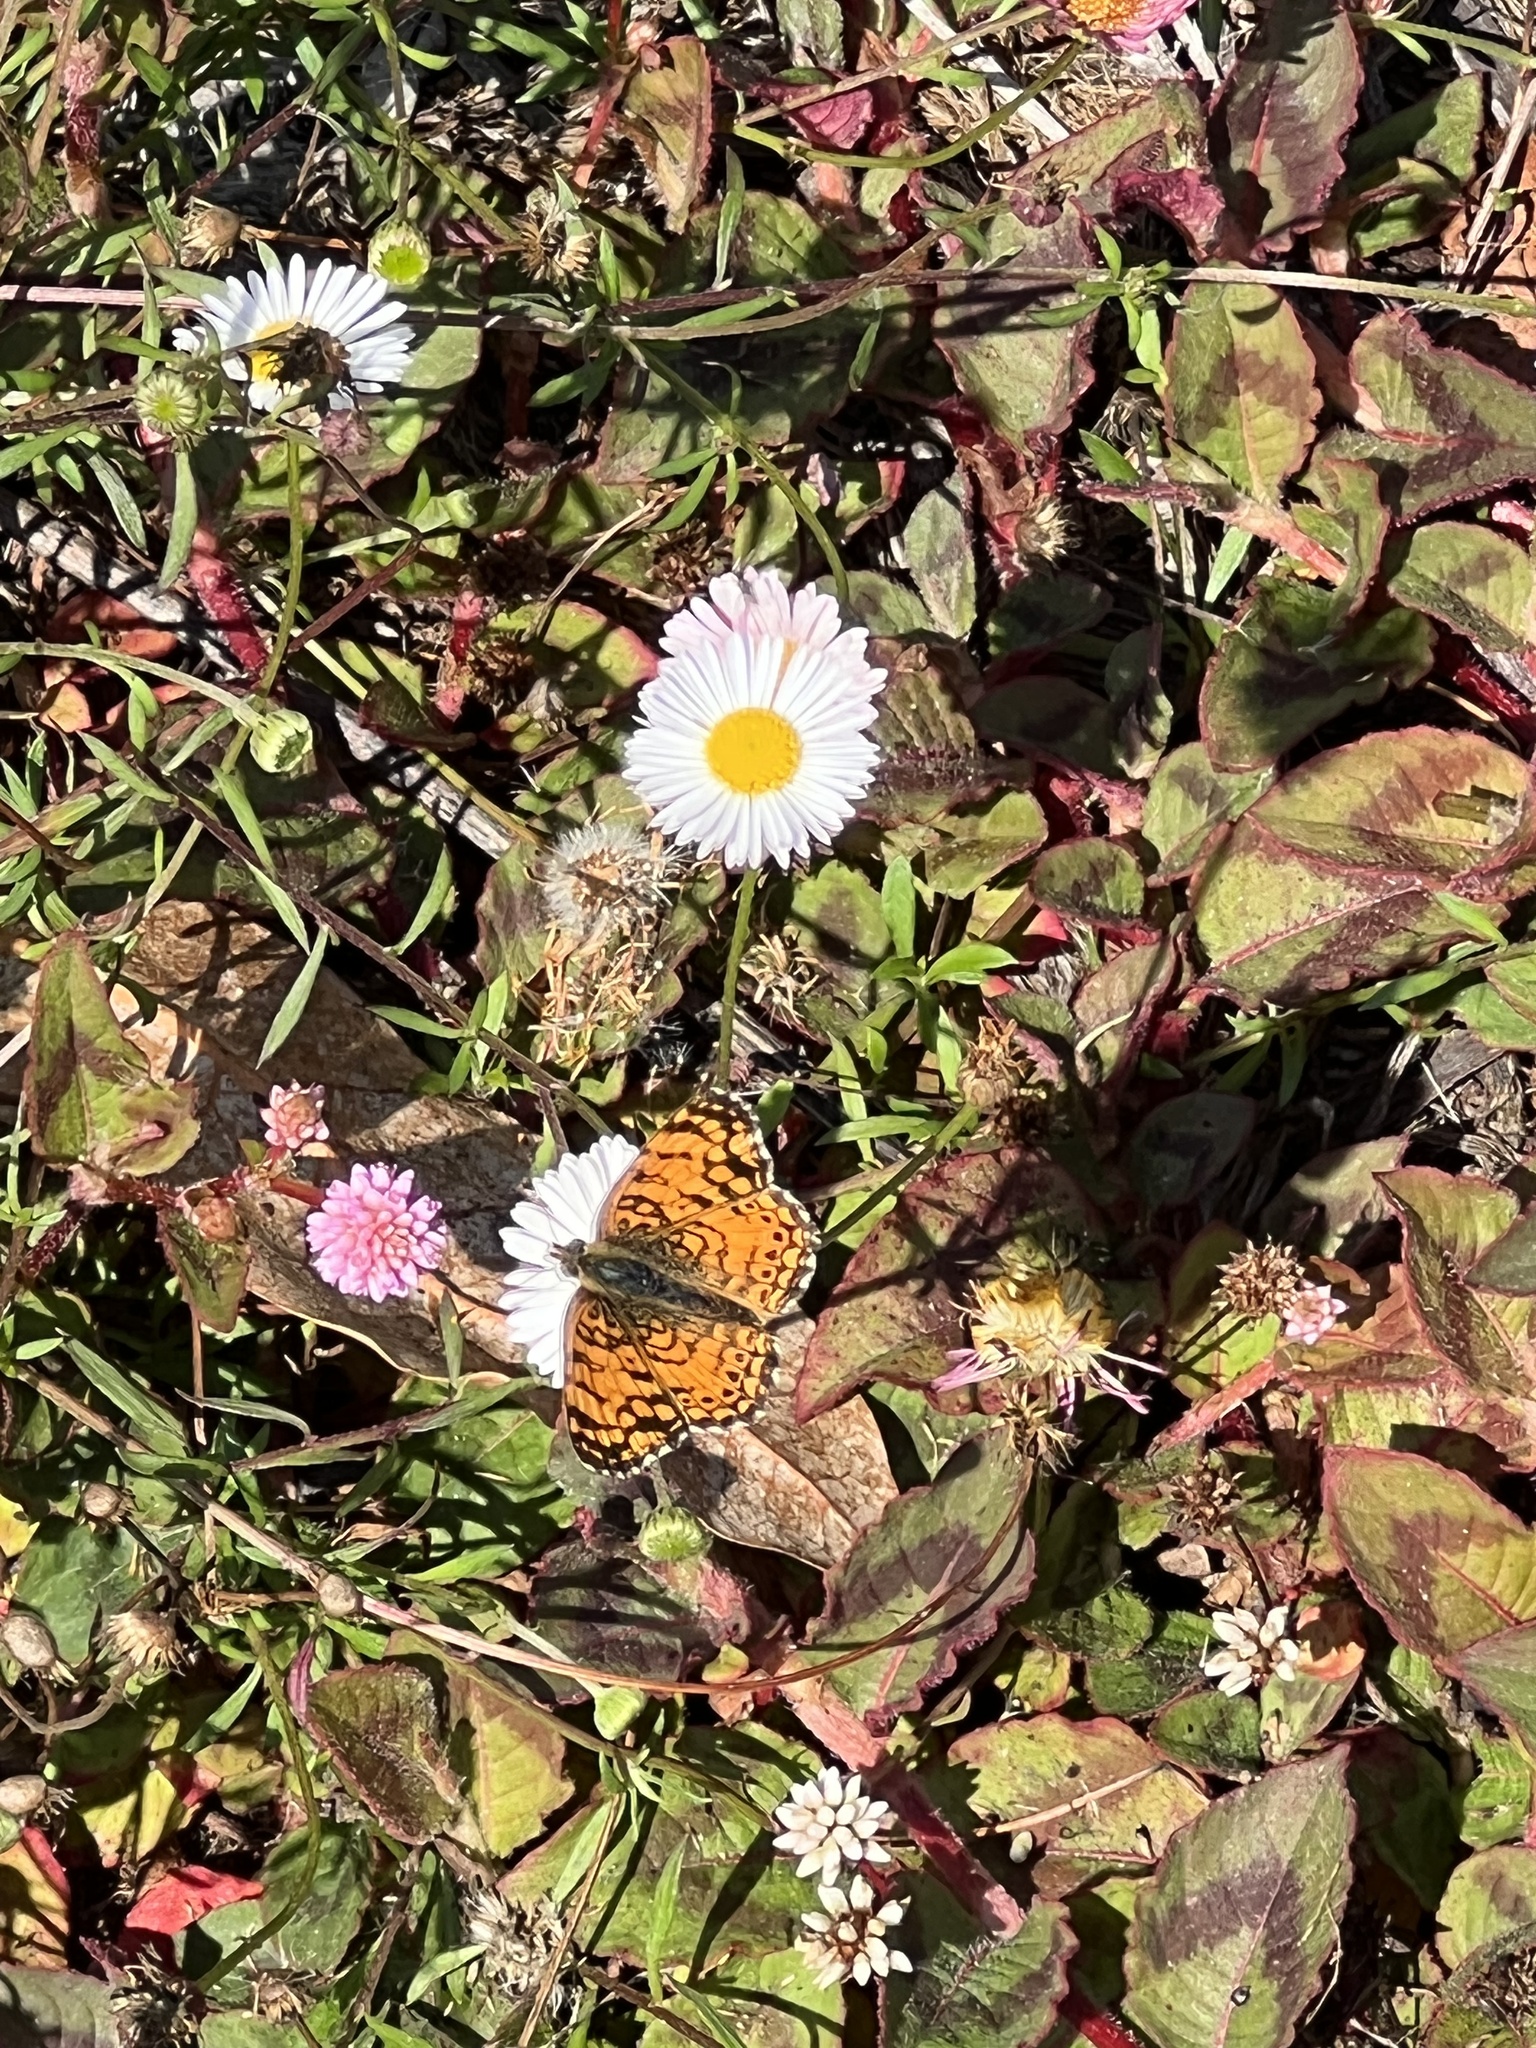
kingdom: Animalia
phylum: Arthropoda
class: Insecta
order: Lepidoptera
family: Nymphalidae
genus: Eresia
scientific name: Eresia aveyrona
